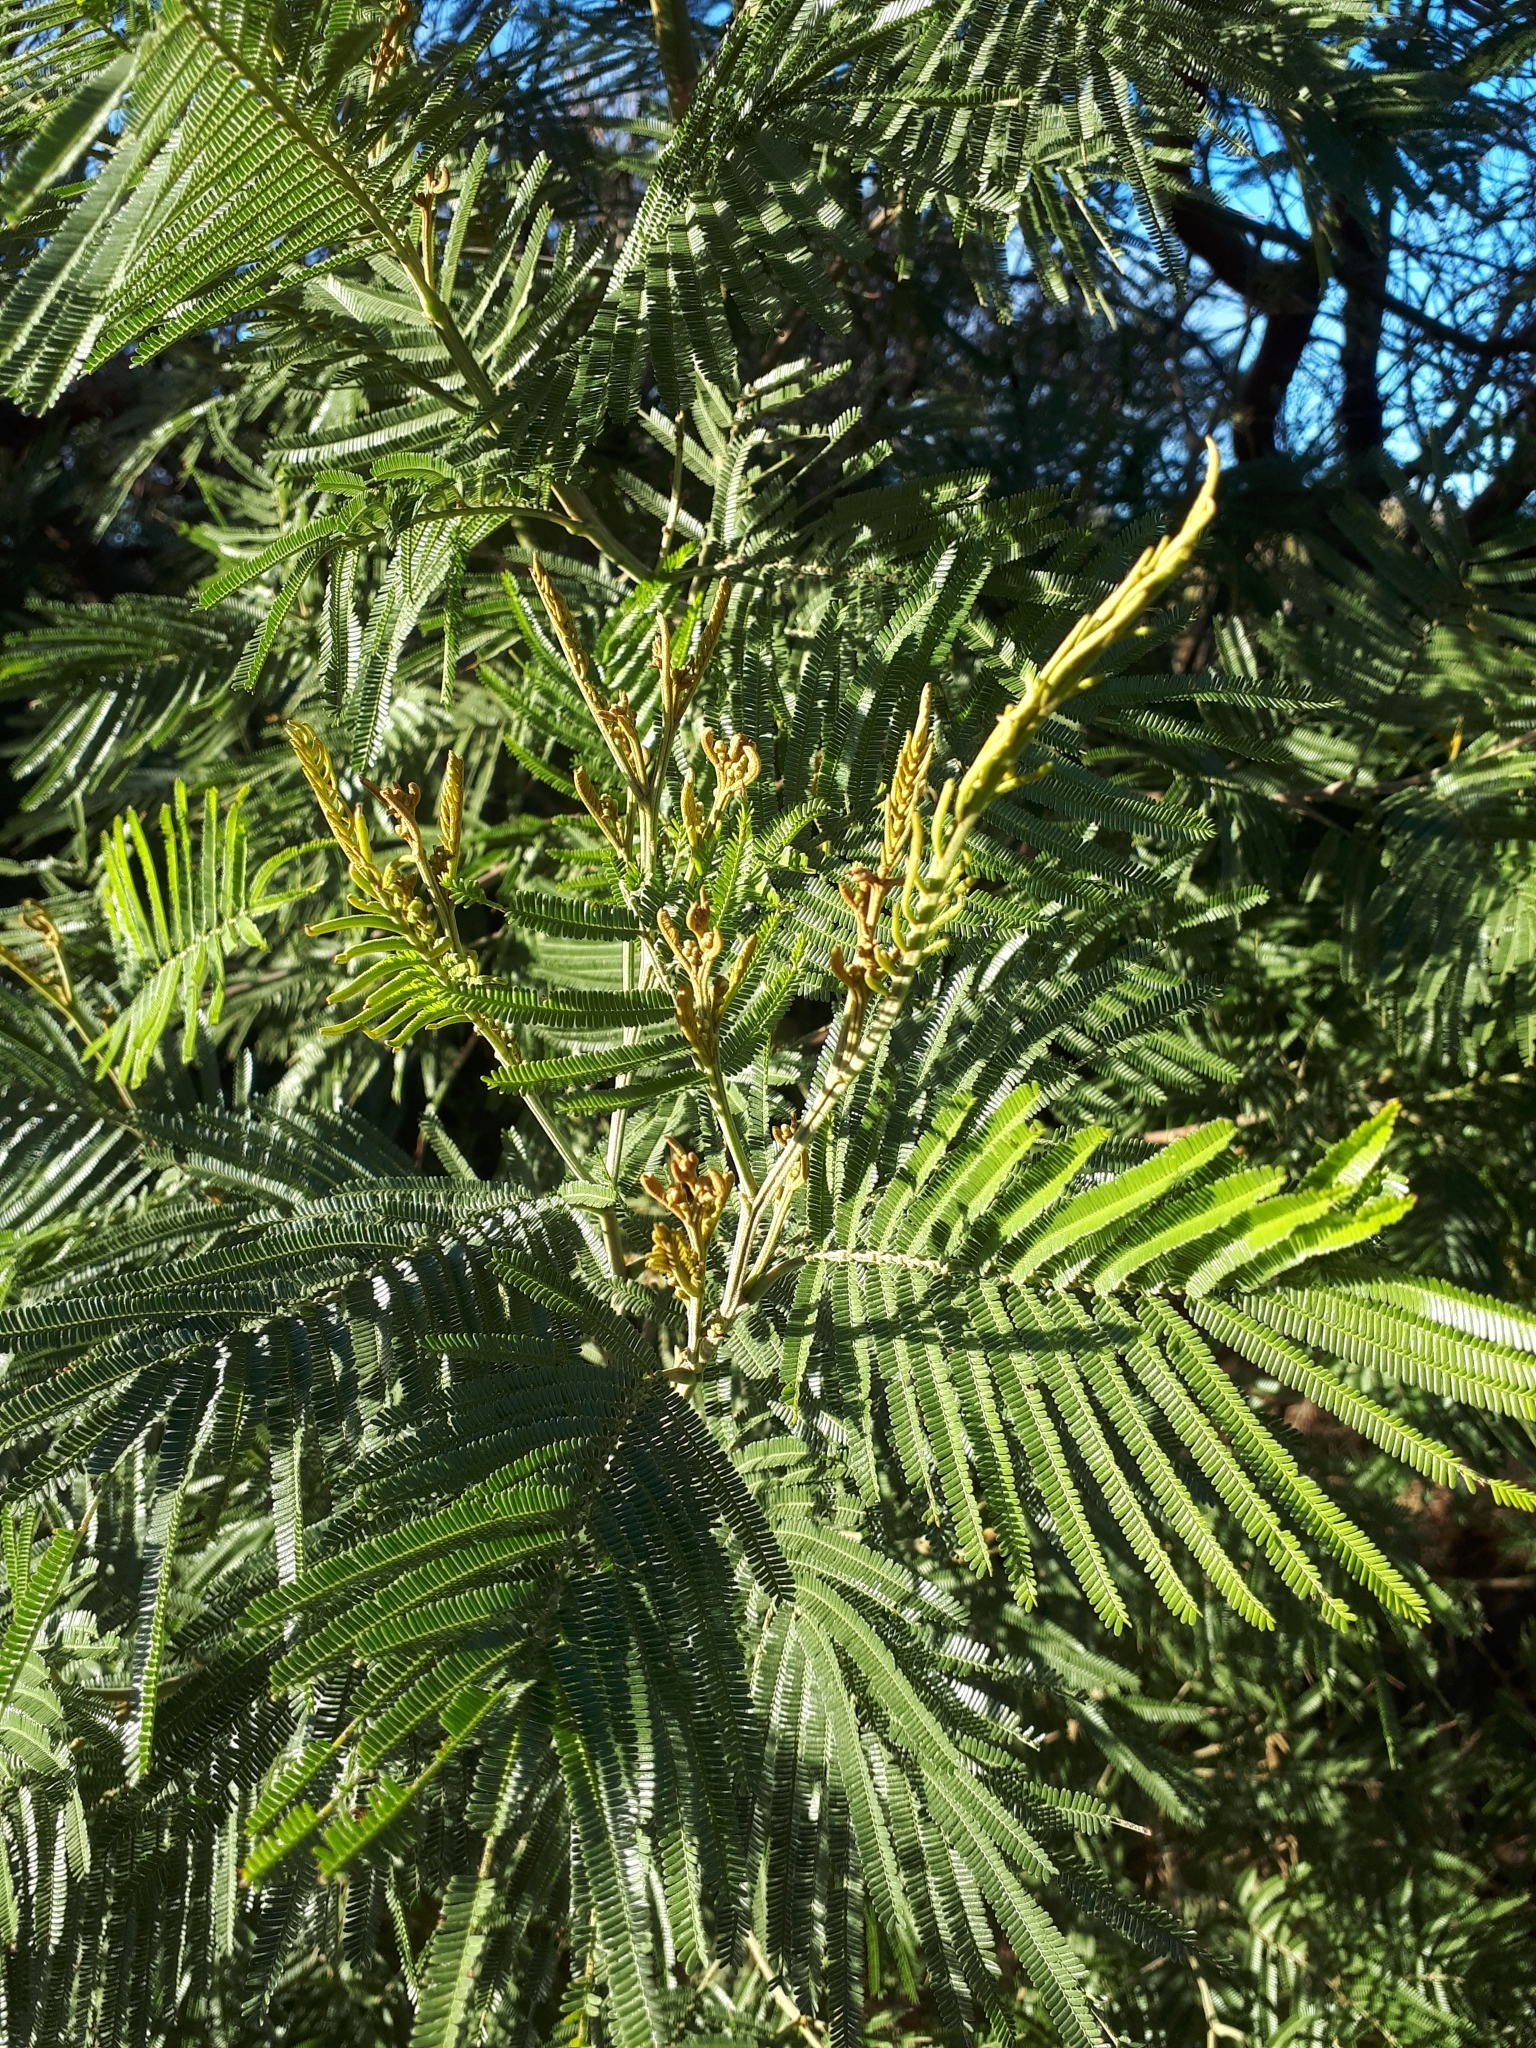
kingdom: Plantae
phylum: Tracheophyta
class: Magnoliopsida
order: Fabales
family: Fabaceae
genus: Acacia
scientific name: Acacia mearnsii
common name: Black wattle
